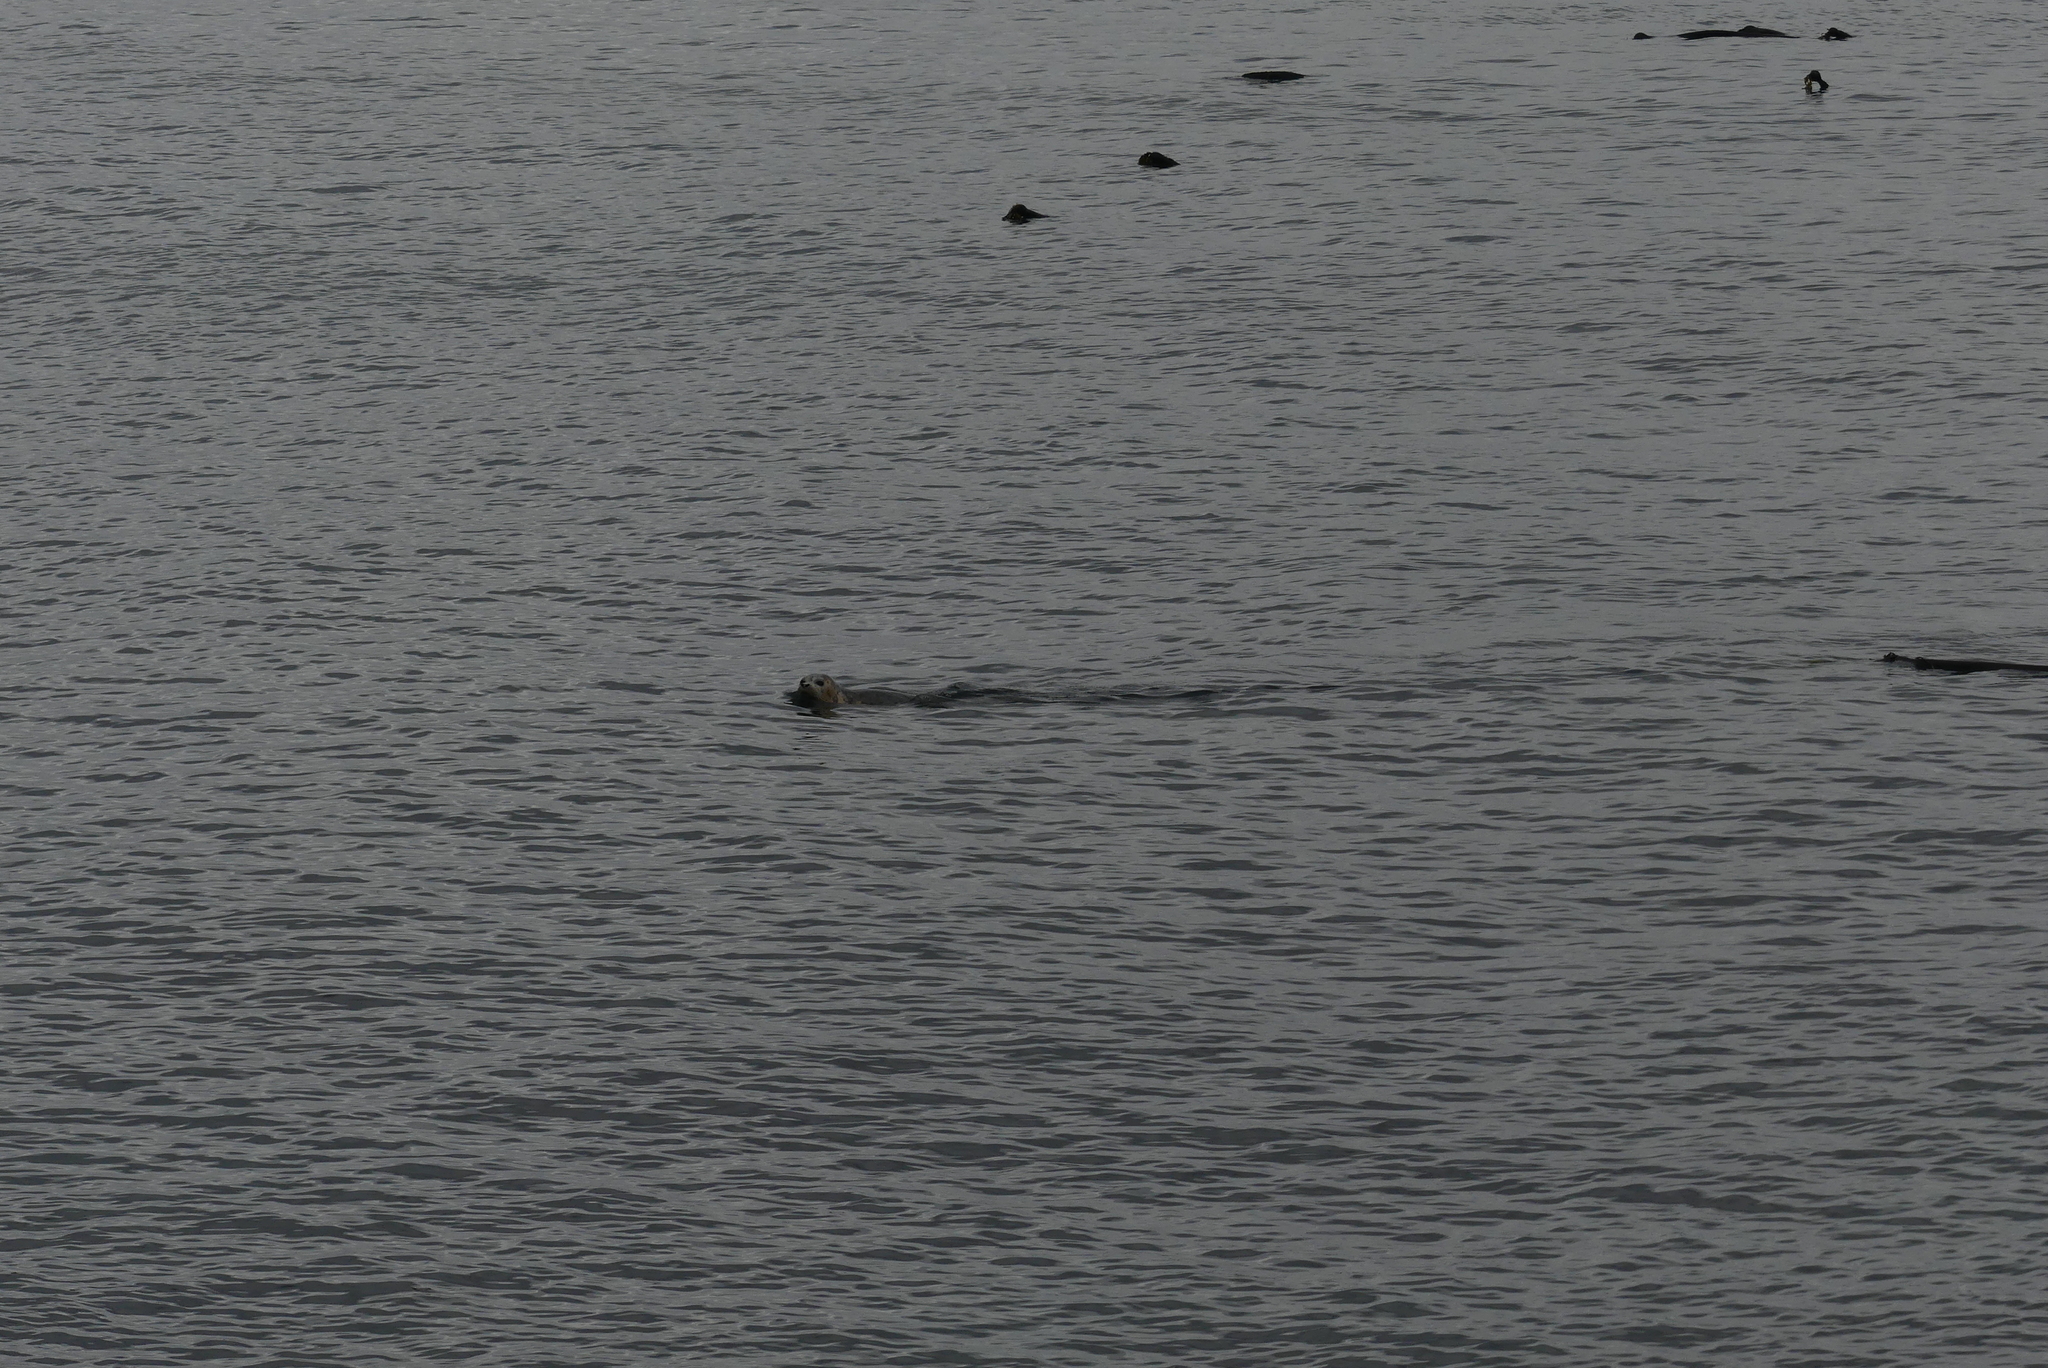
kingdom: Animalia
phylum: Chordata
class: Mammalia
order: Carnivora
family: Phocidae
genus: Phoca
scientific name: Phoca vitulina
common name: Harbor seal
